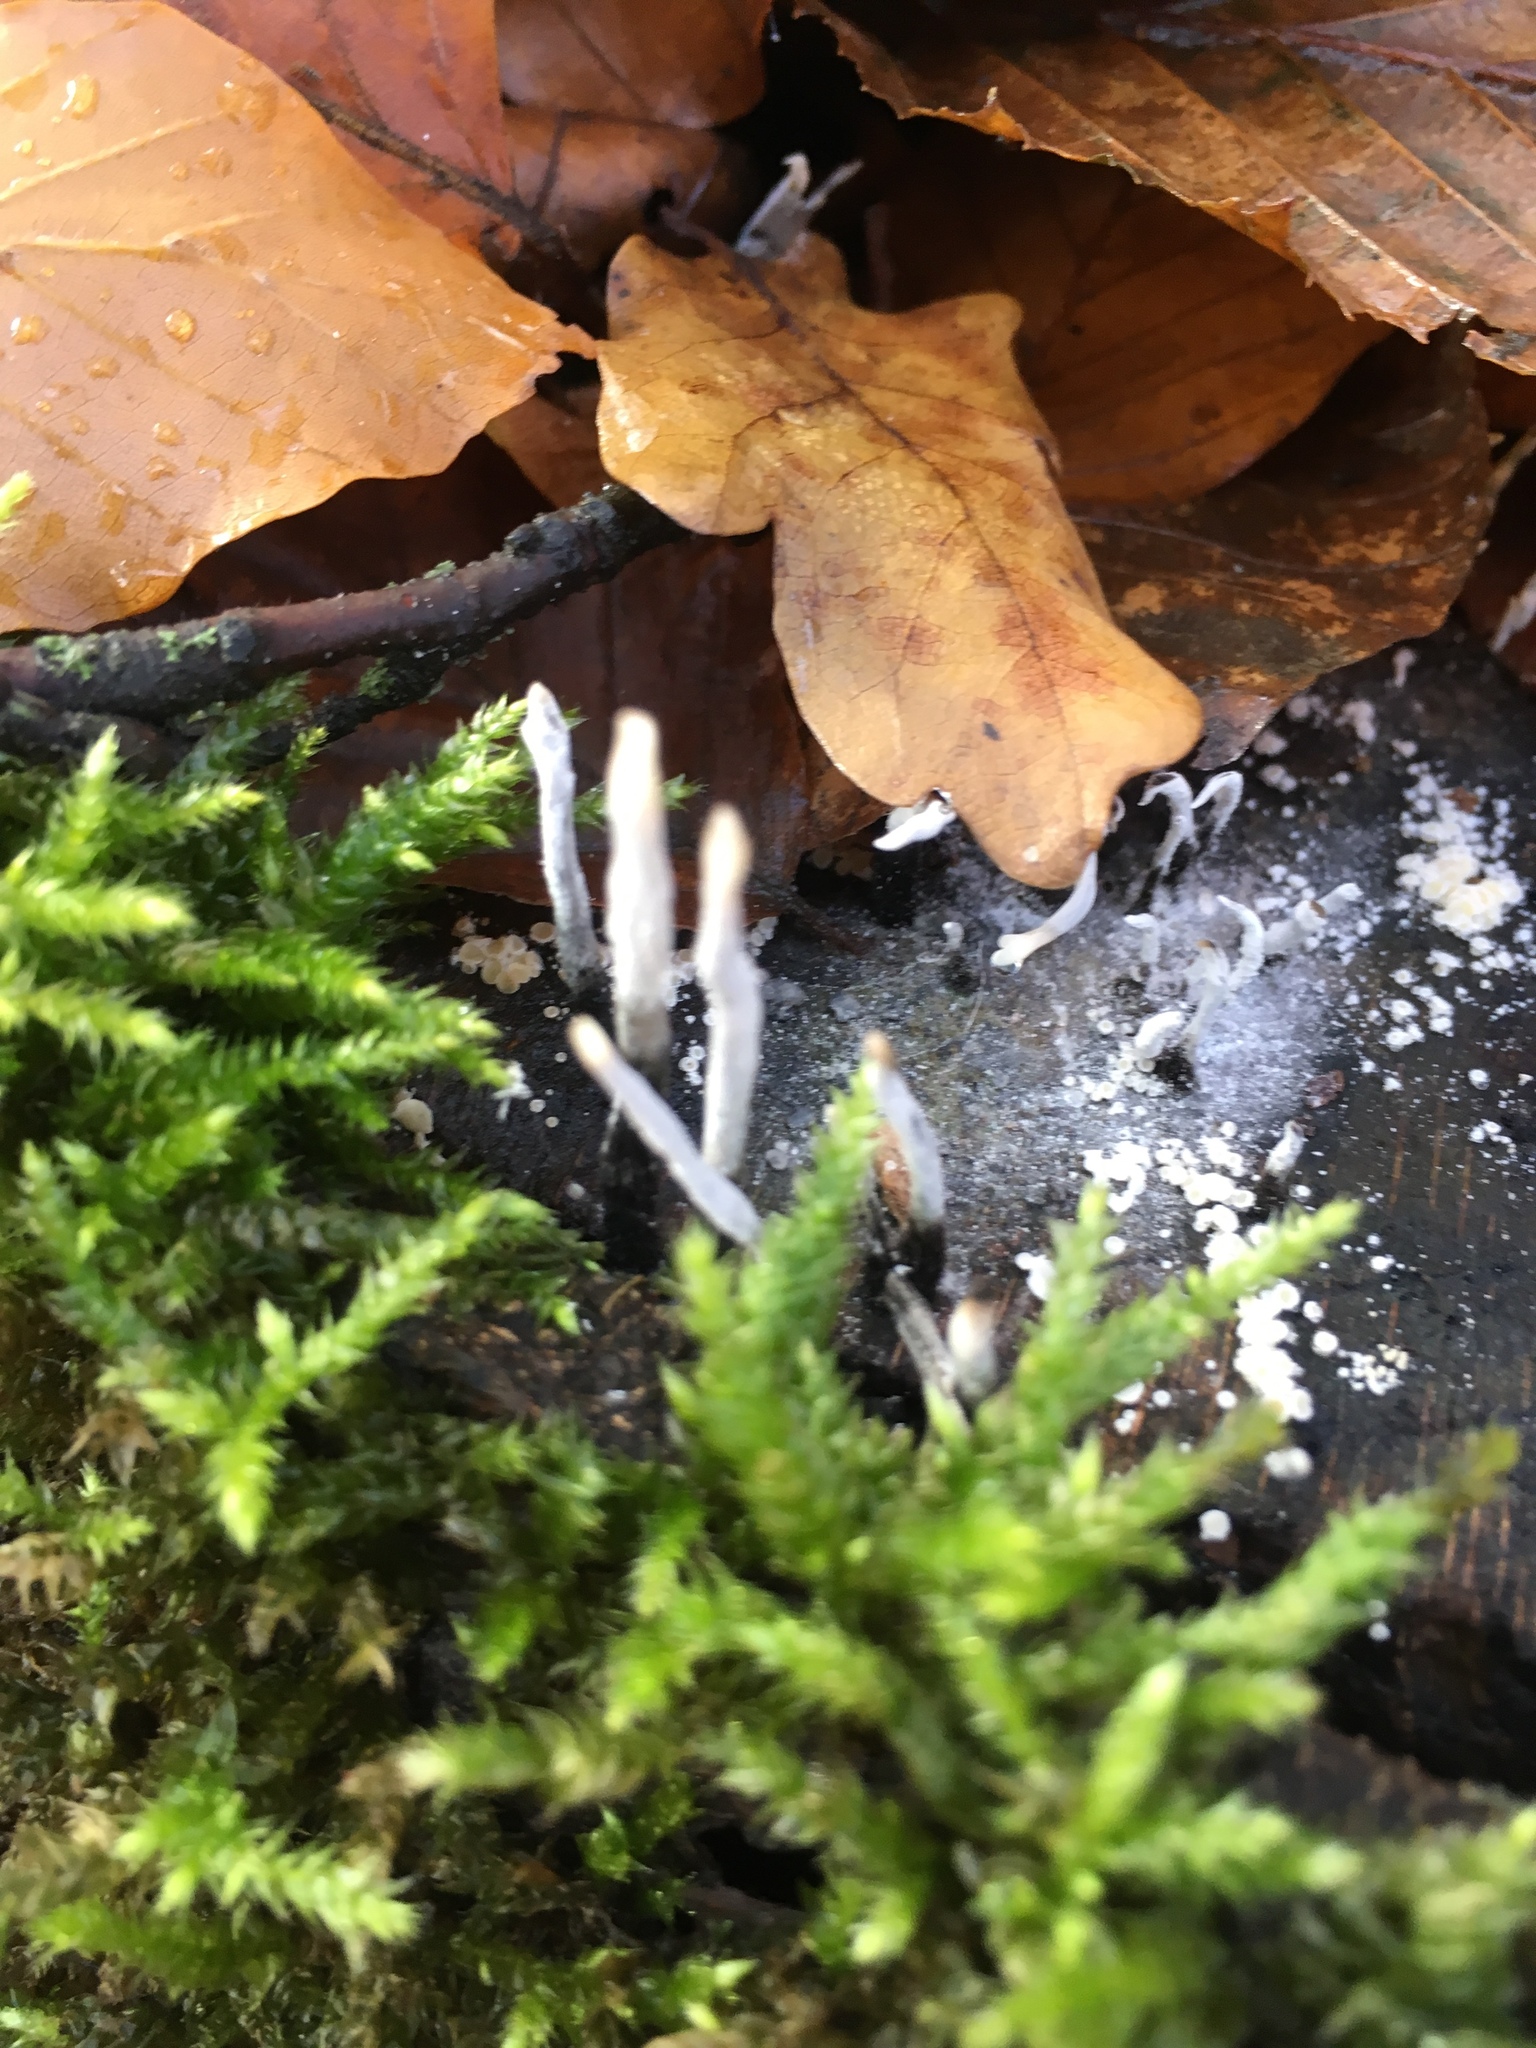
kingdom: Fungi
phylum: Ascomycota
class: Sordariomycetes
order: Xylariales
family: Xylariaceae
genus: Xylaria
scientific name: Xylaria hypoxylon
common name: Candle-snuff fungus
